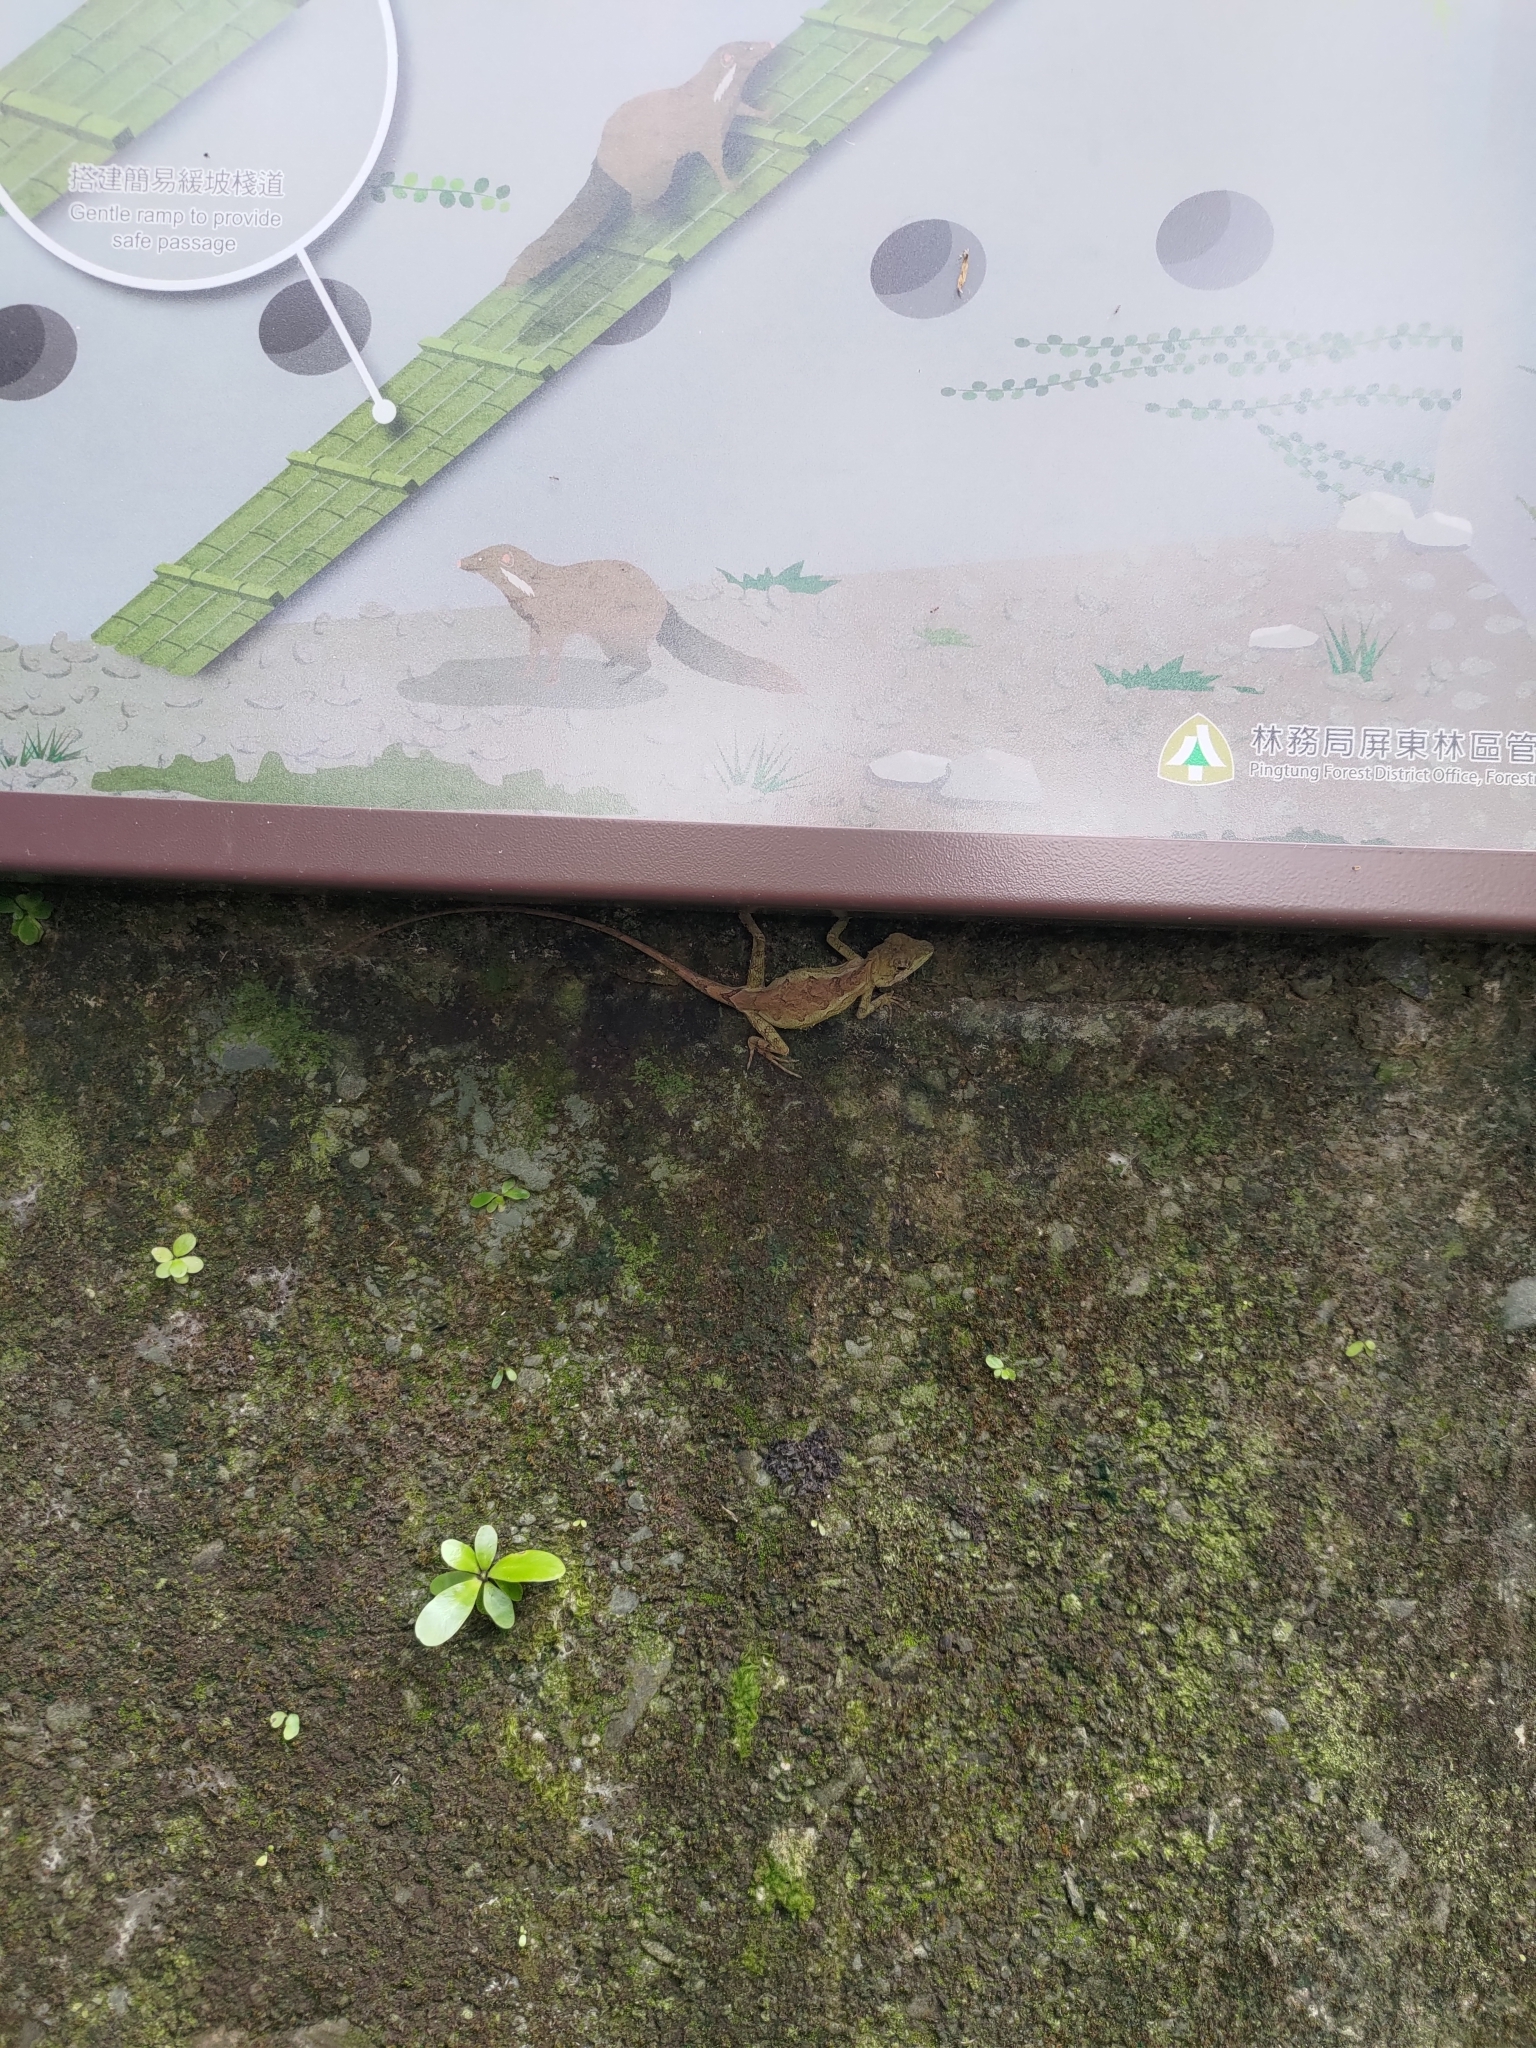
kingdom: Animalia
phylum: Chordata
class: Squamata
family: Agamidae
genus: Diploderma
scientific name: Diploderma swinhonis
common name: Taiwan japalure
